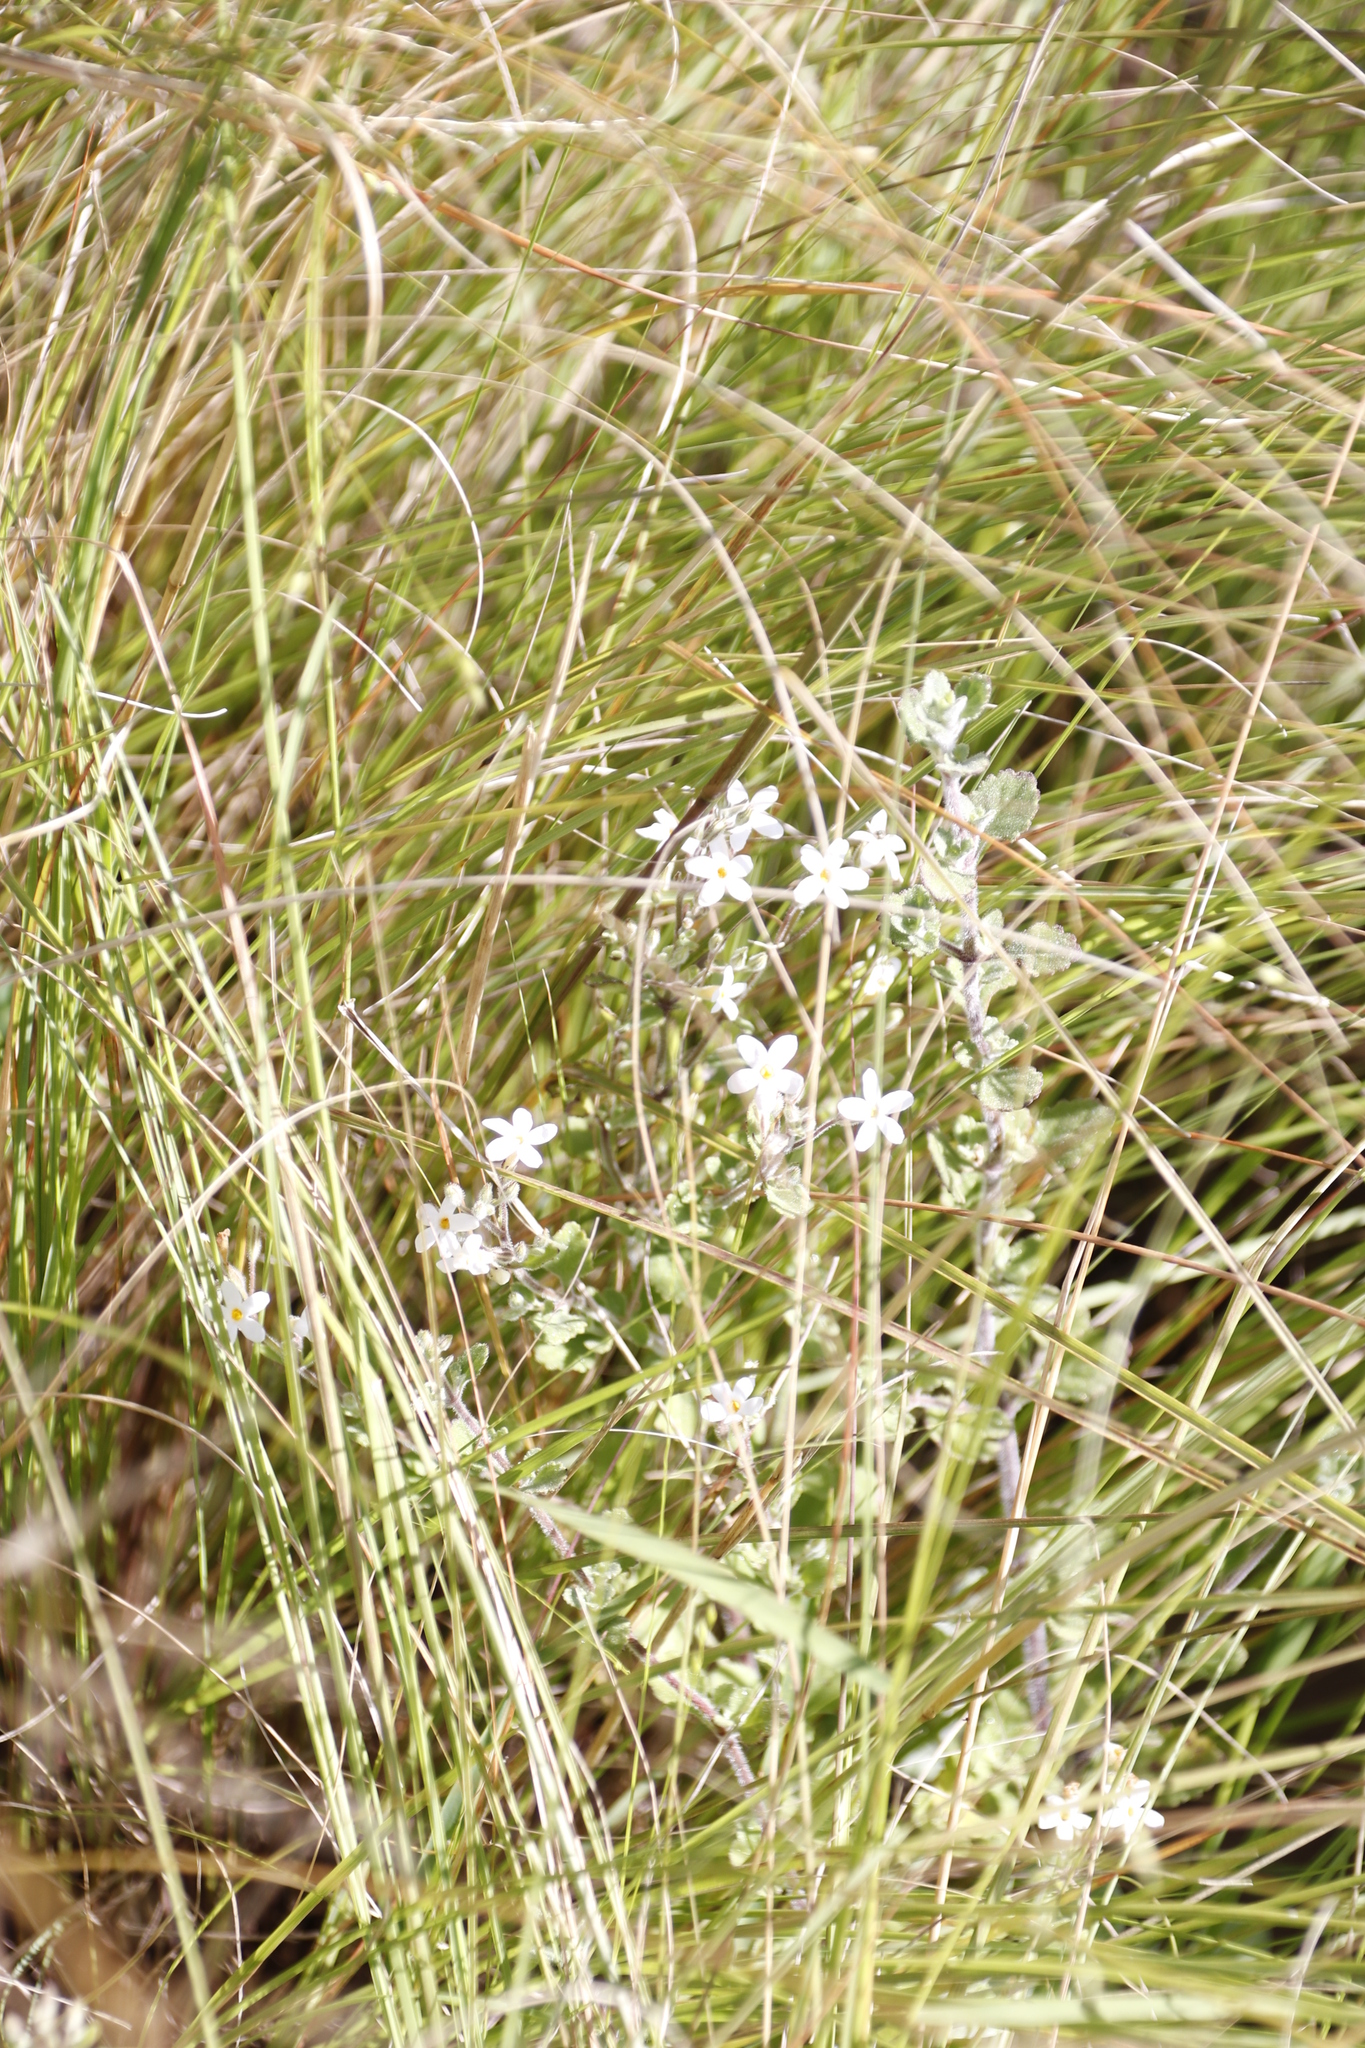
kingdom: Plantae
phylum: Tracheophyta
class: Magnoliopsida
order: Lamiales
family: Scrophulariaceae
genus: Chaenostoma
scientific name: Chaenostoma floribundum
